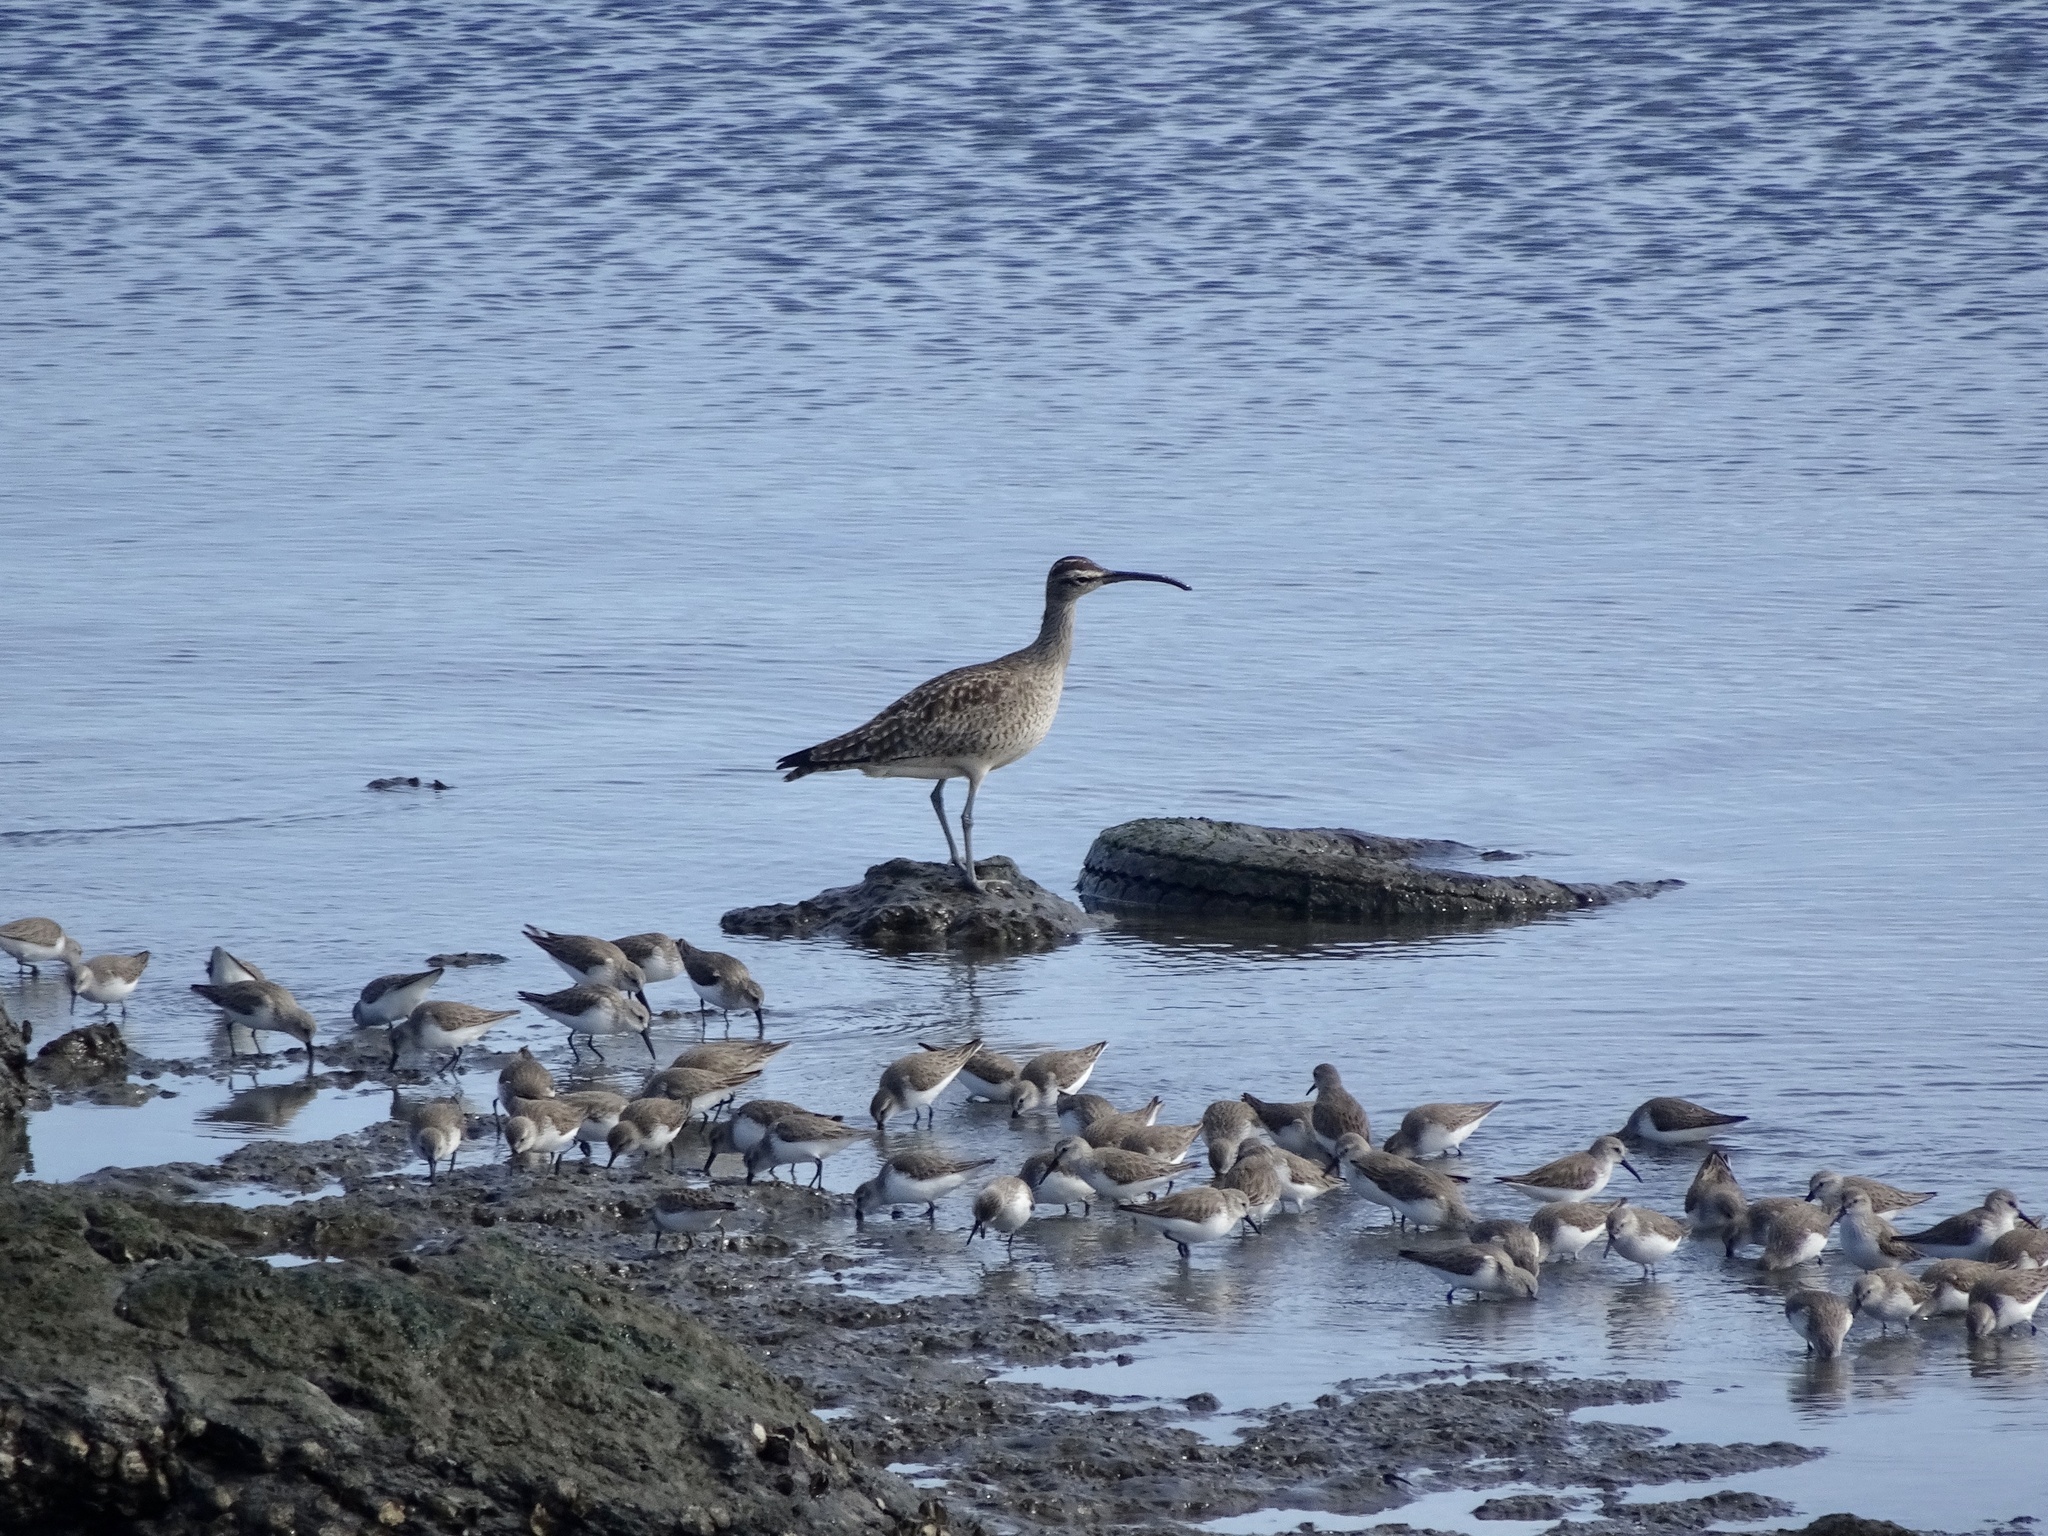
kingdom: Animalia
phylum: Chordata
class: Aves
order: Charadriiformes
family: Scolopacidae
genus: Numenius
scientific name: Numenius phaeopus
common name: Whimbrel
